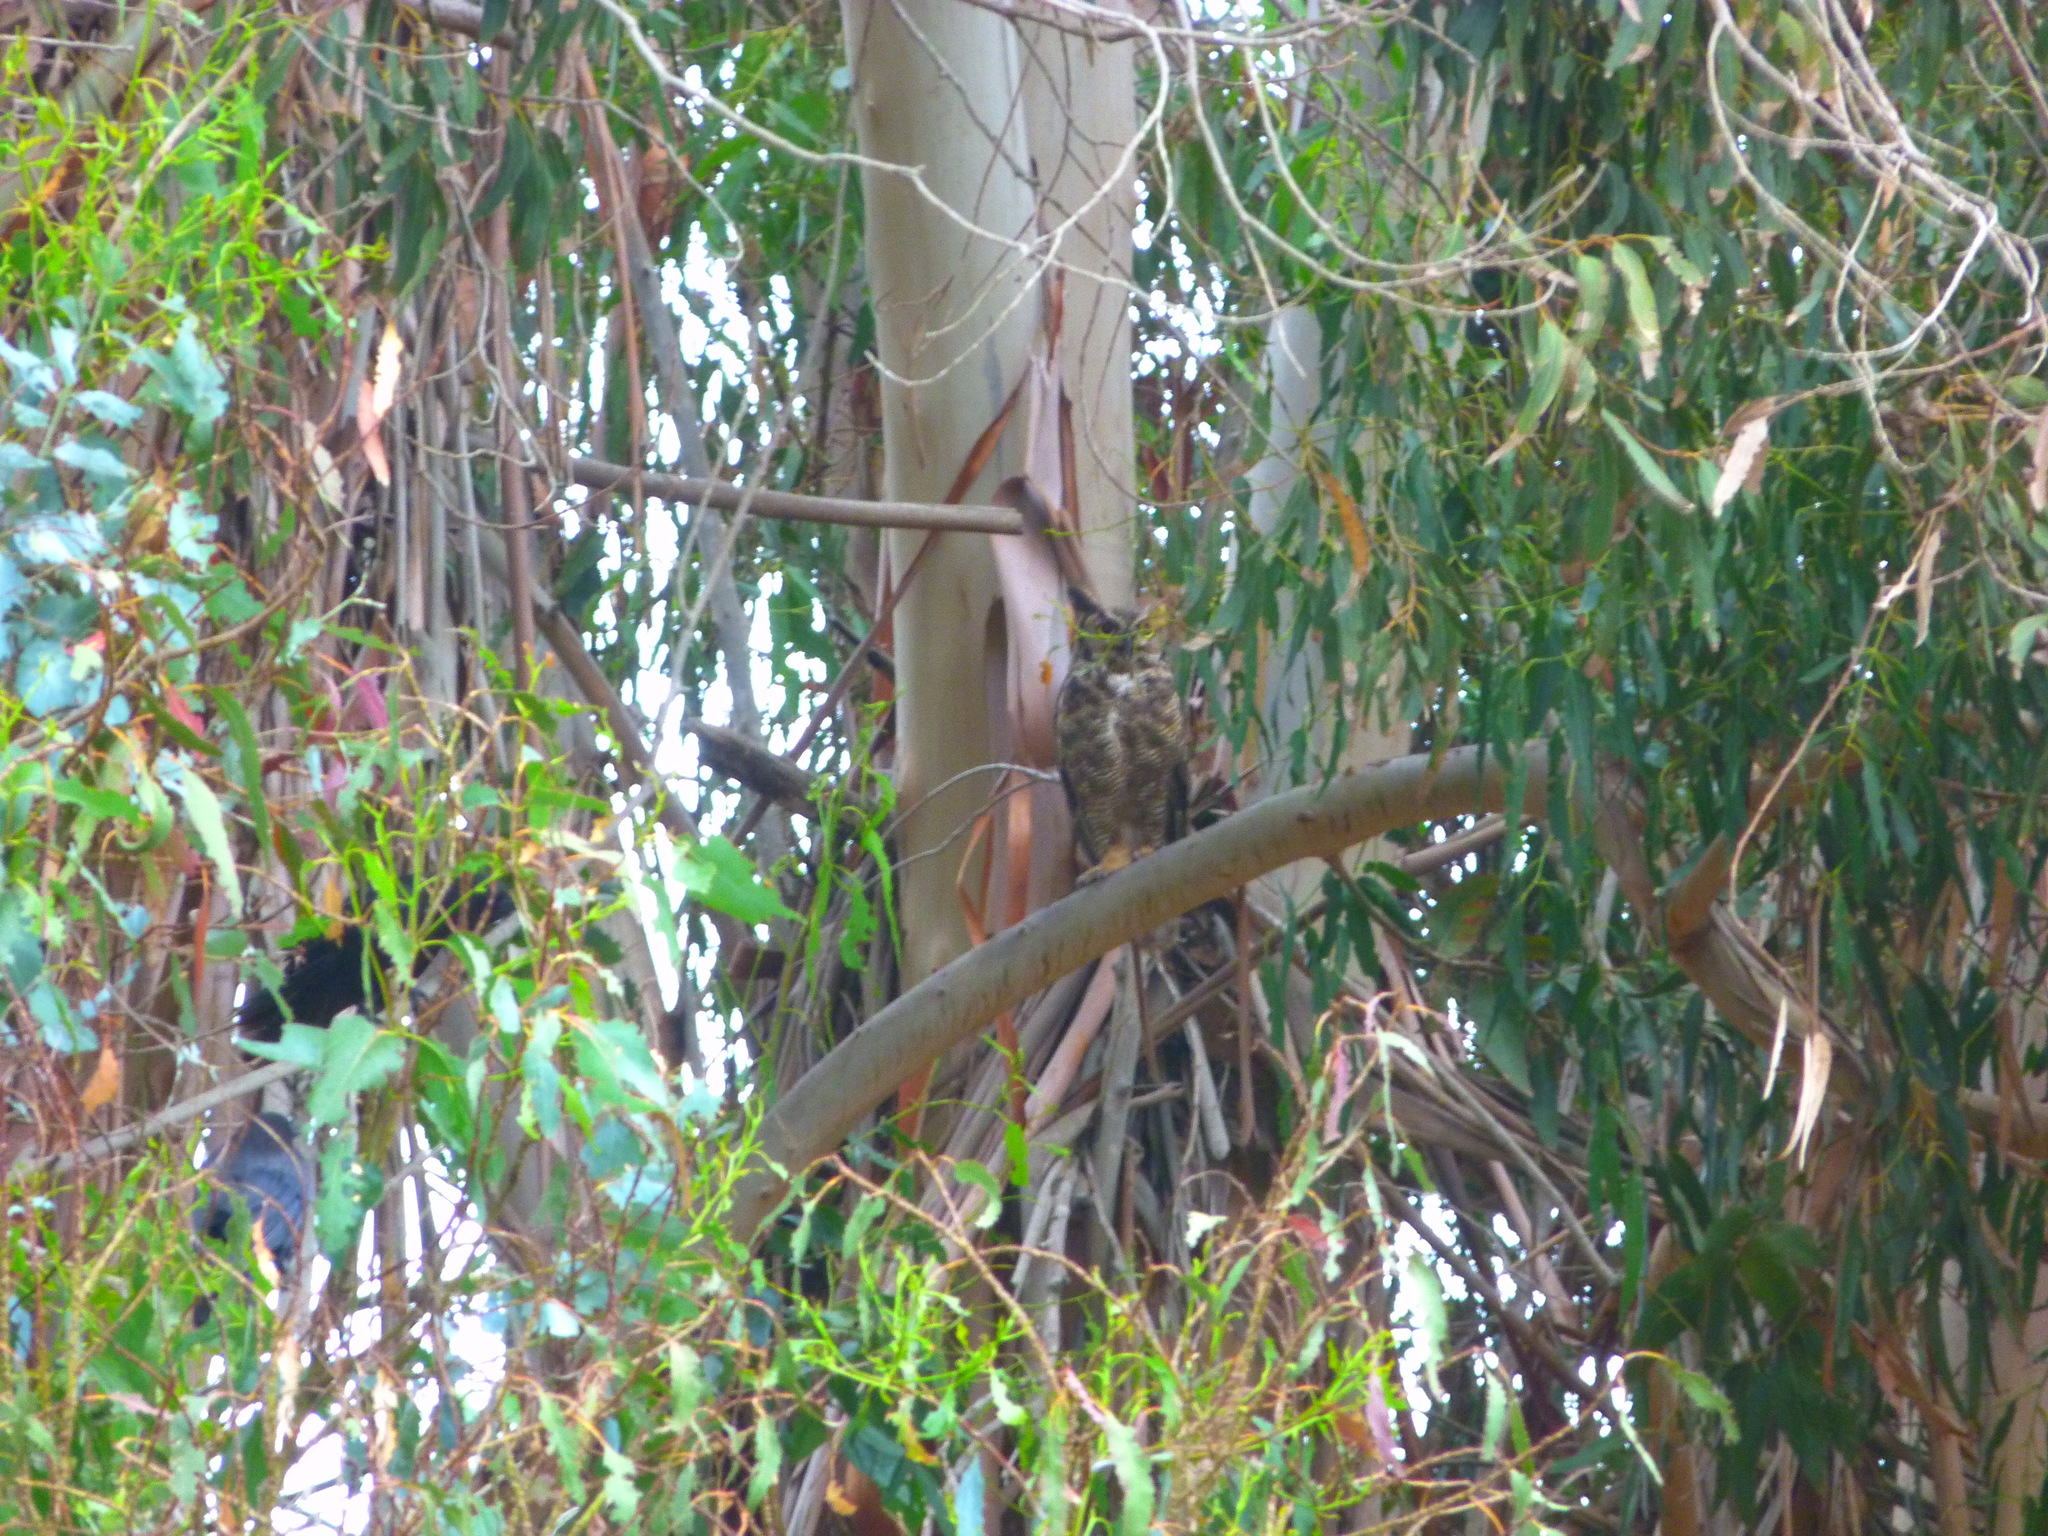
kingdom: Animalia
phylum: Chordata
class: Aves
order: Strigiformes
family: Strigidae
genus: Bubo
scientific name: Bubo virginianus
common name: Great horned owl
